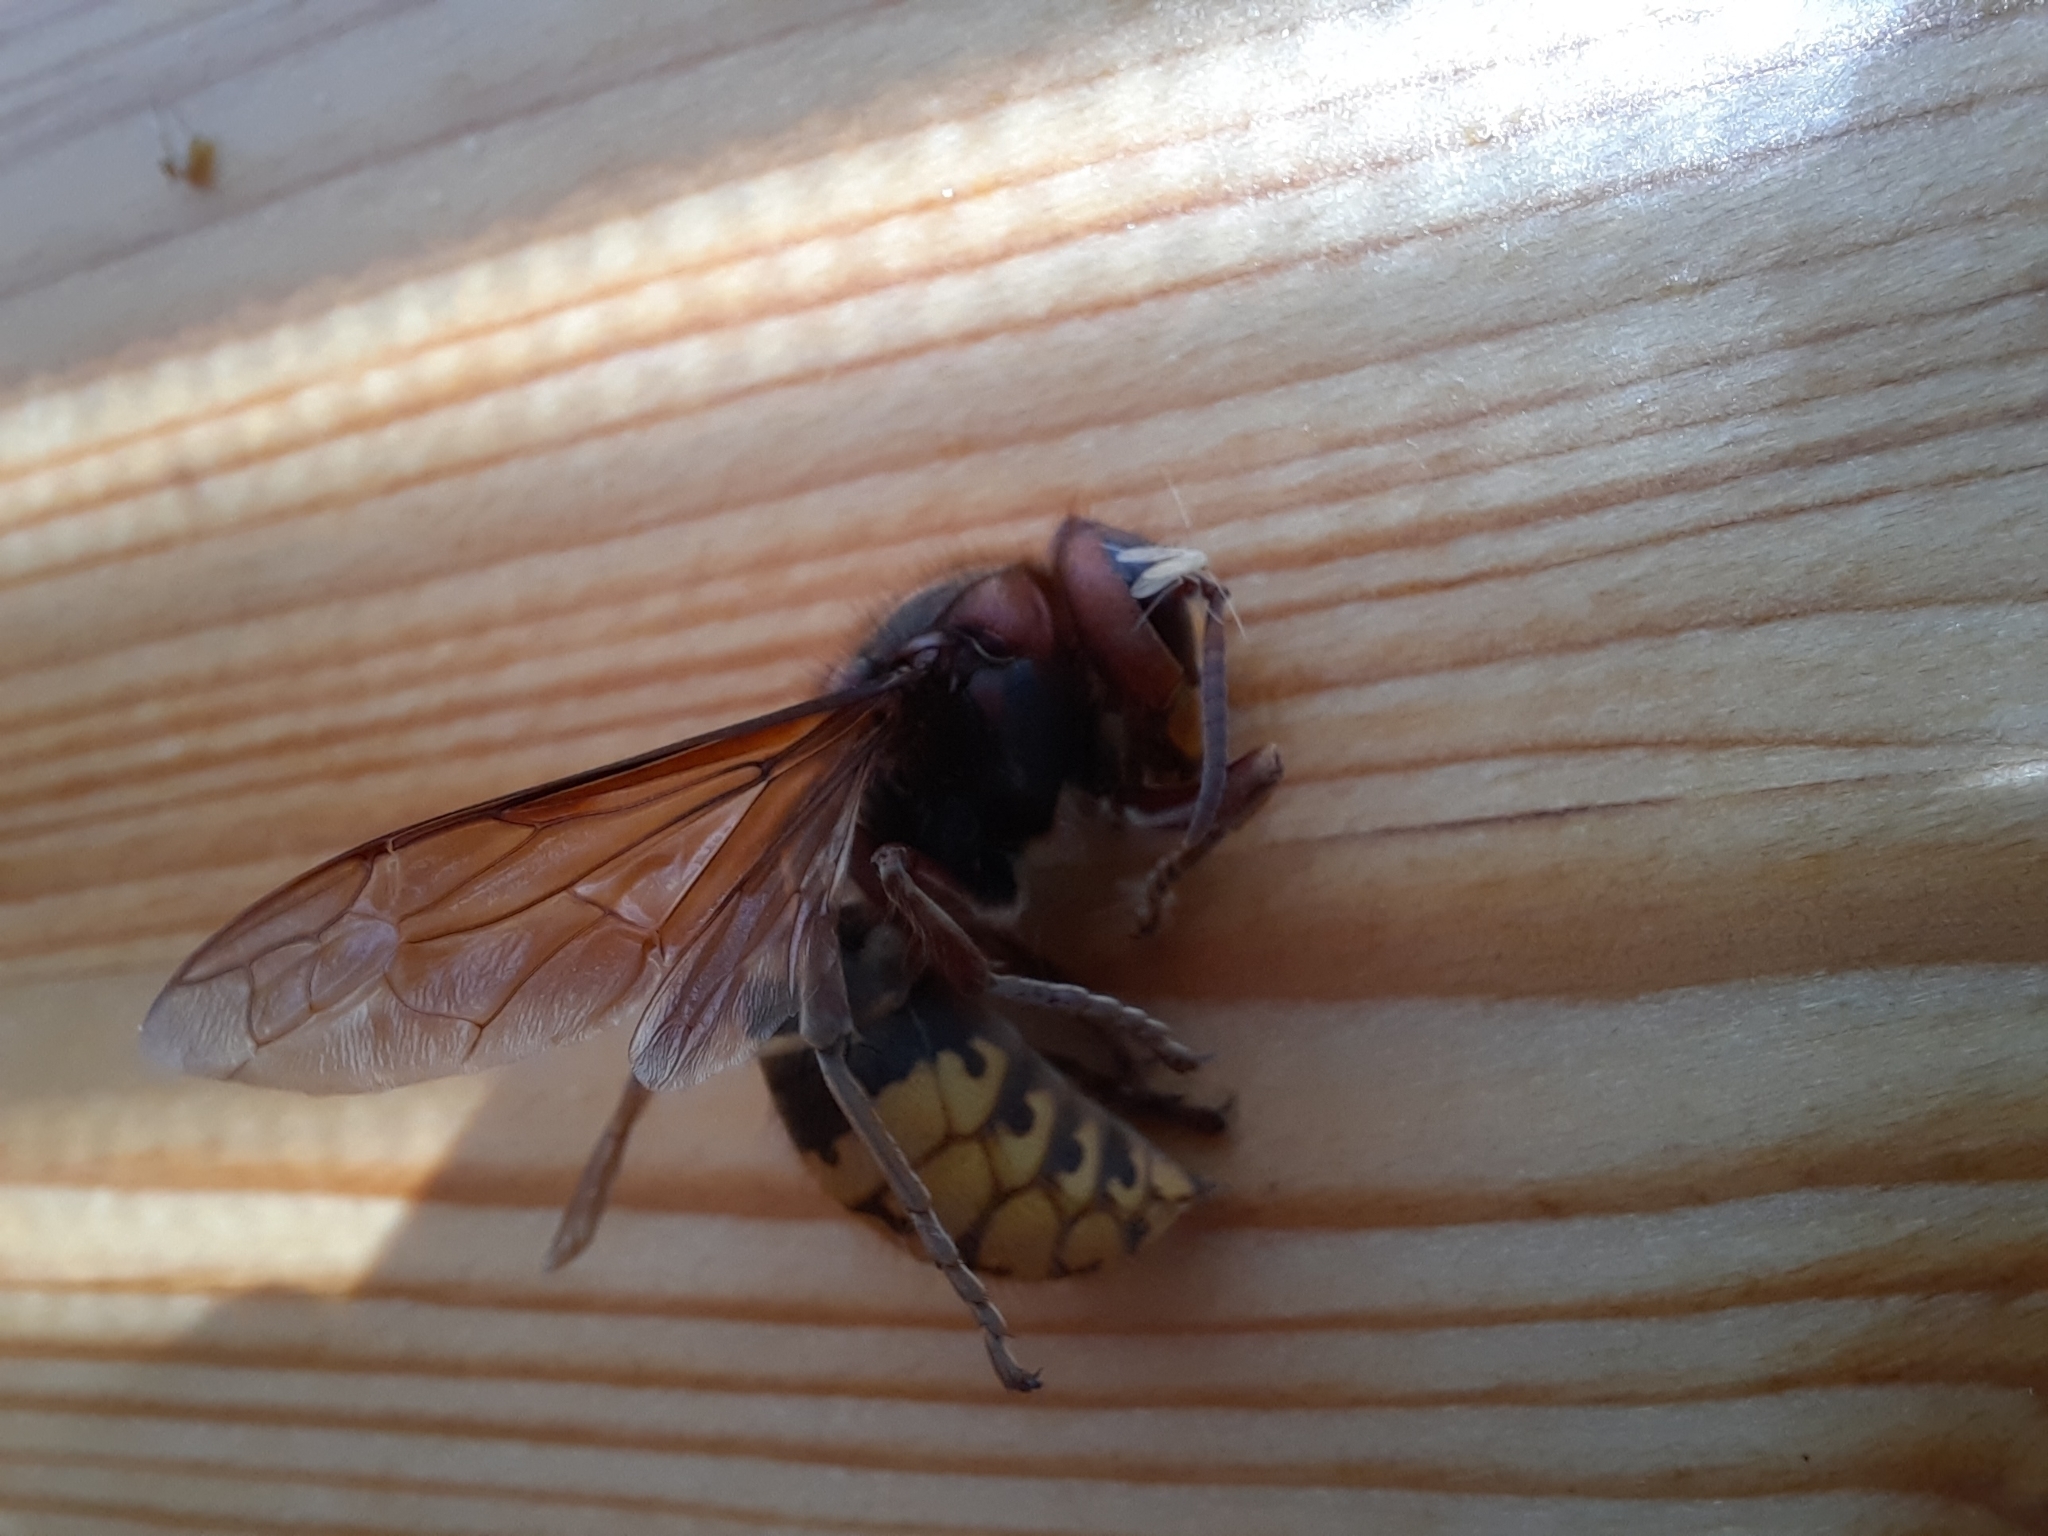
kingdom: Animalia
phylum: Arthropoda
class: Insecta
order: Hymenoptera
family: Vespidae
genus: Vespa
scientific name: Vespa crabro
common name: Hornet
